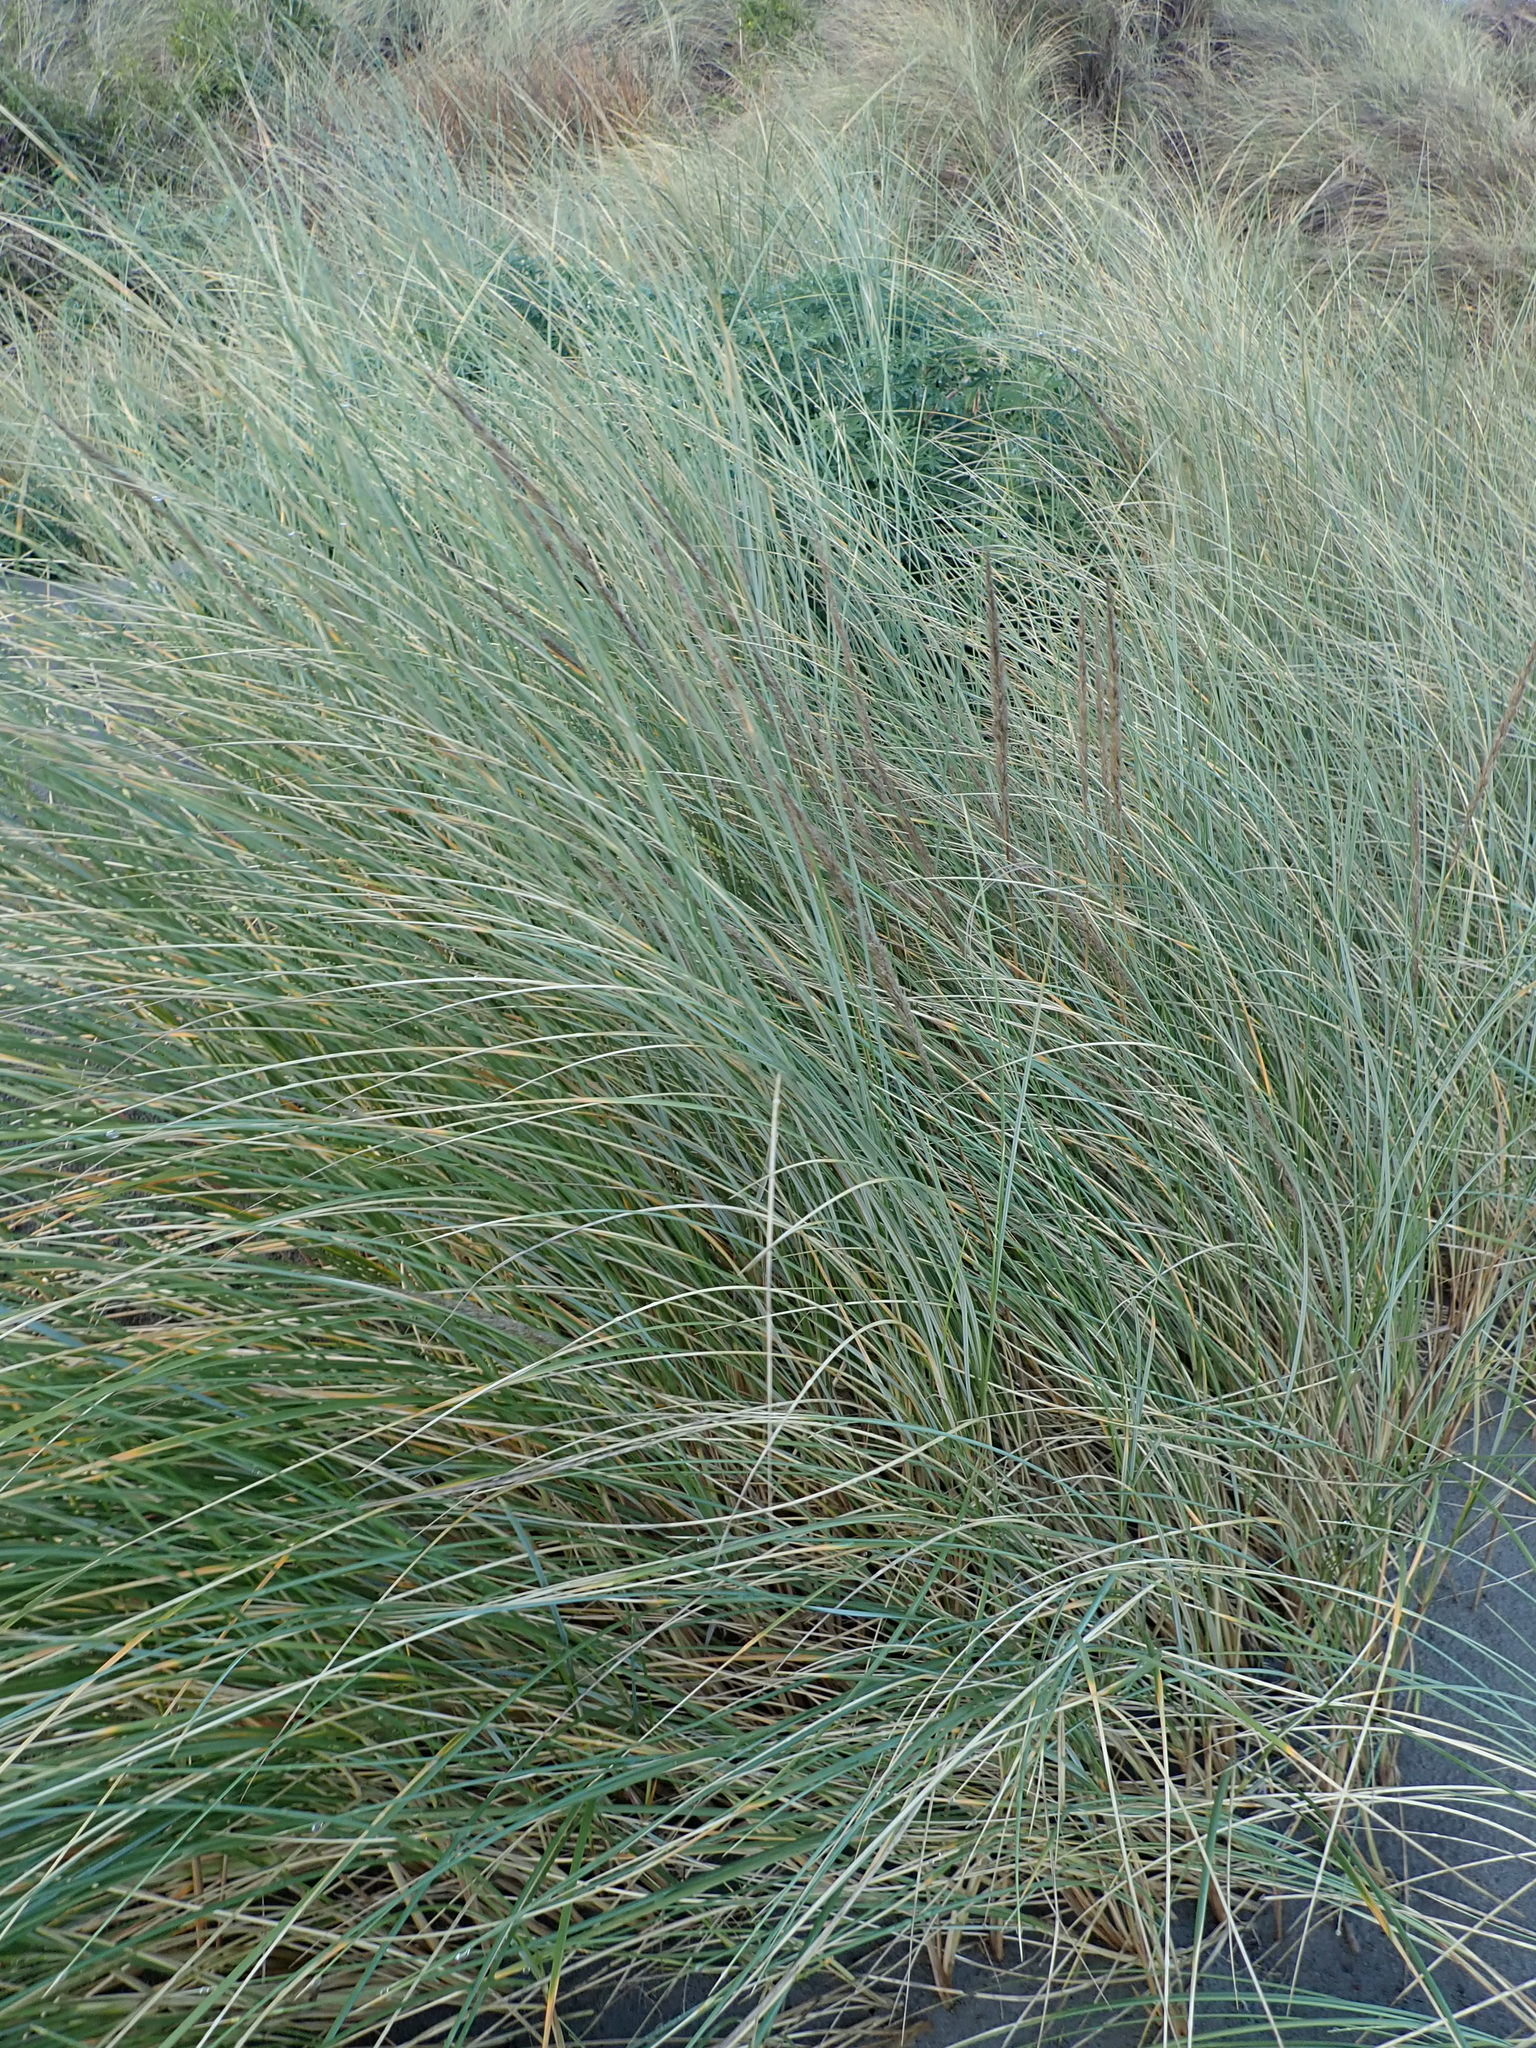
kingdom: Plantae
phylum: Tracheophyta
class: Liliopsida
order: Poales
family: Poaceae
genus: Calamagrostis
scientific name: Calamagrostis arenaria
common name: European beachgrass
